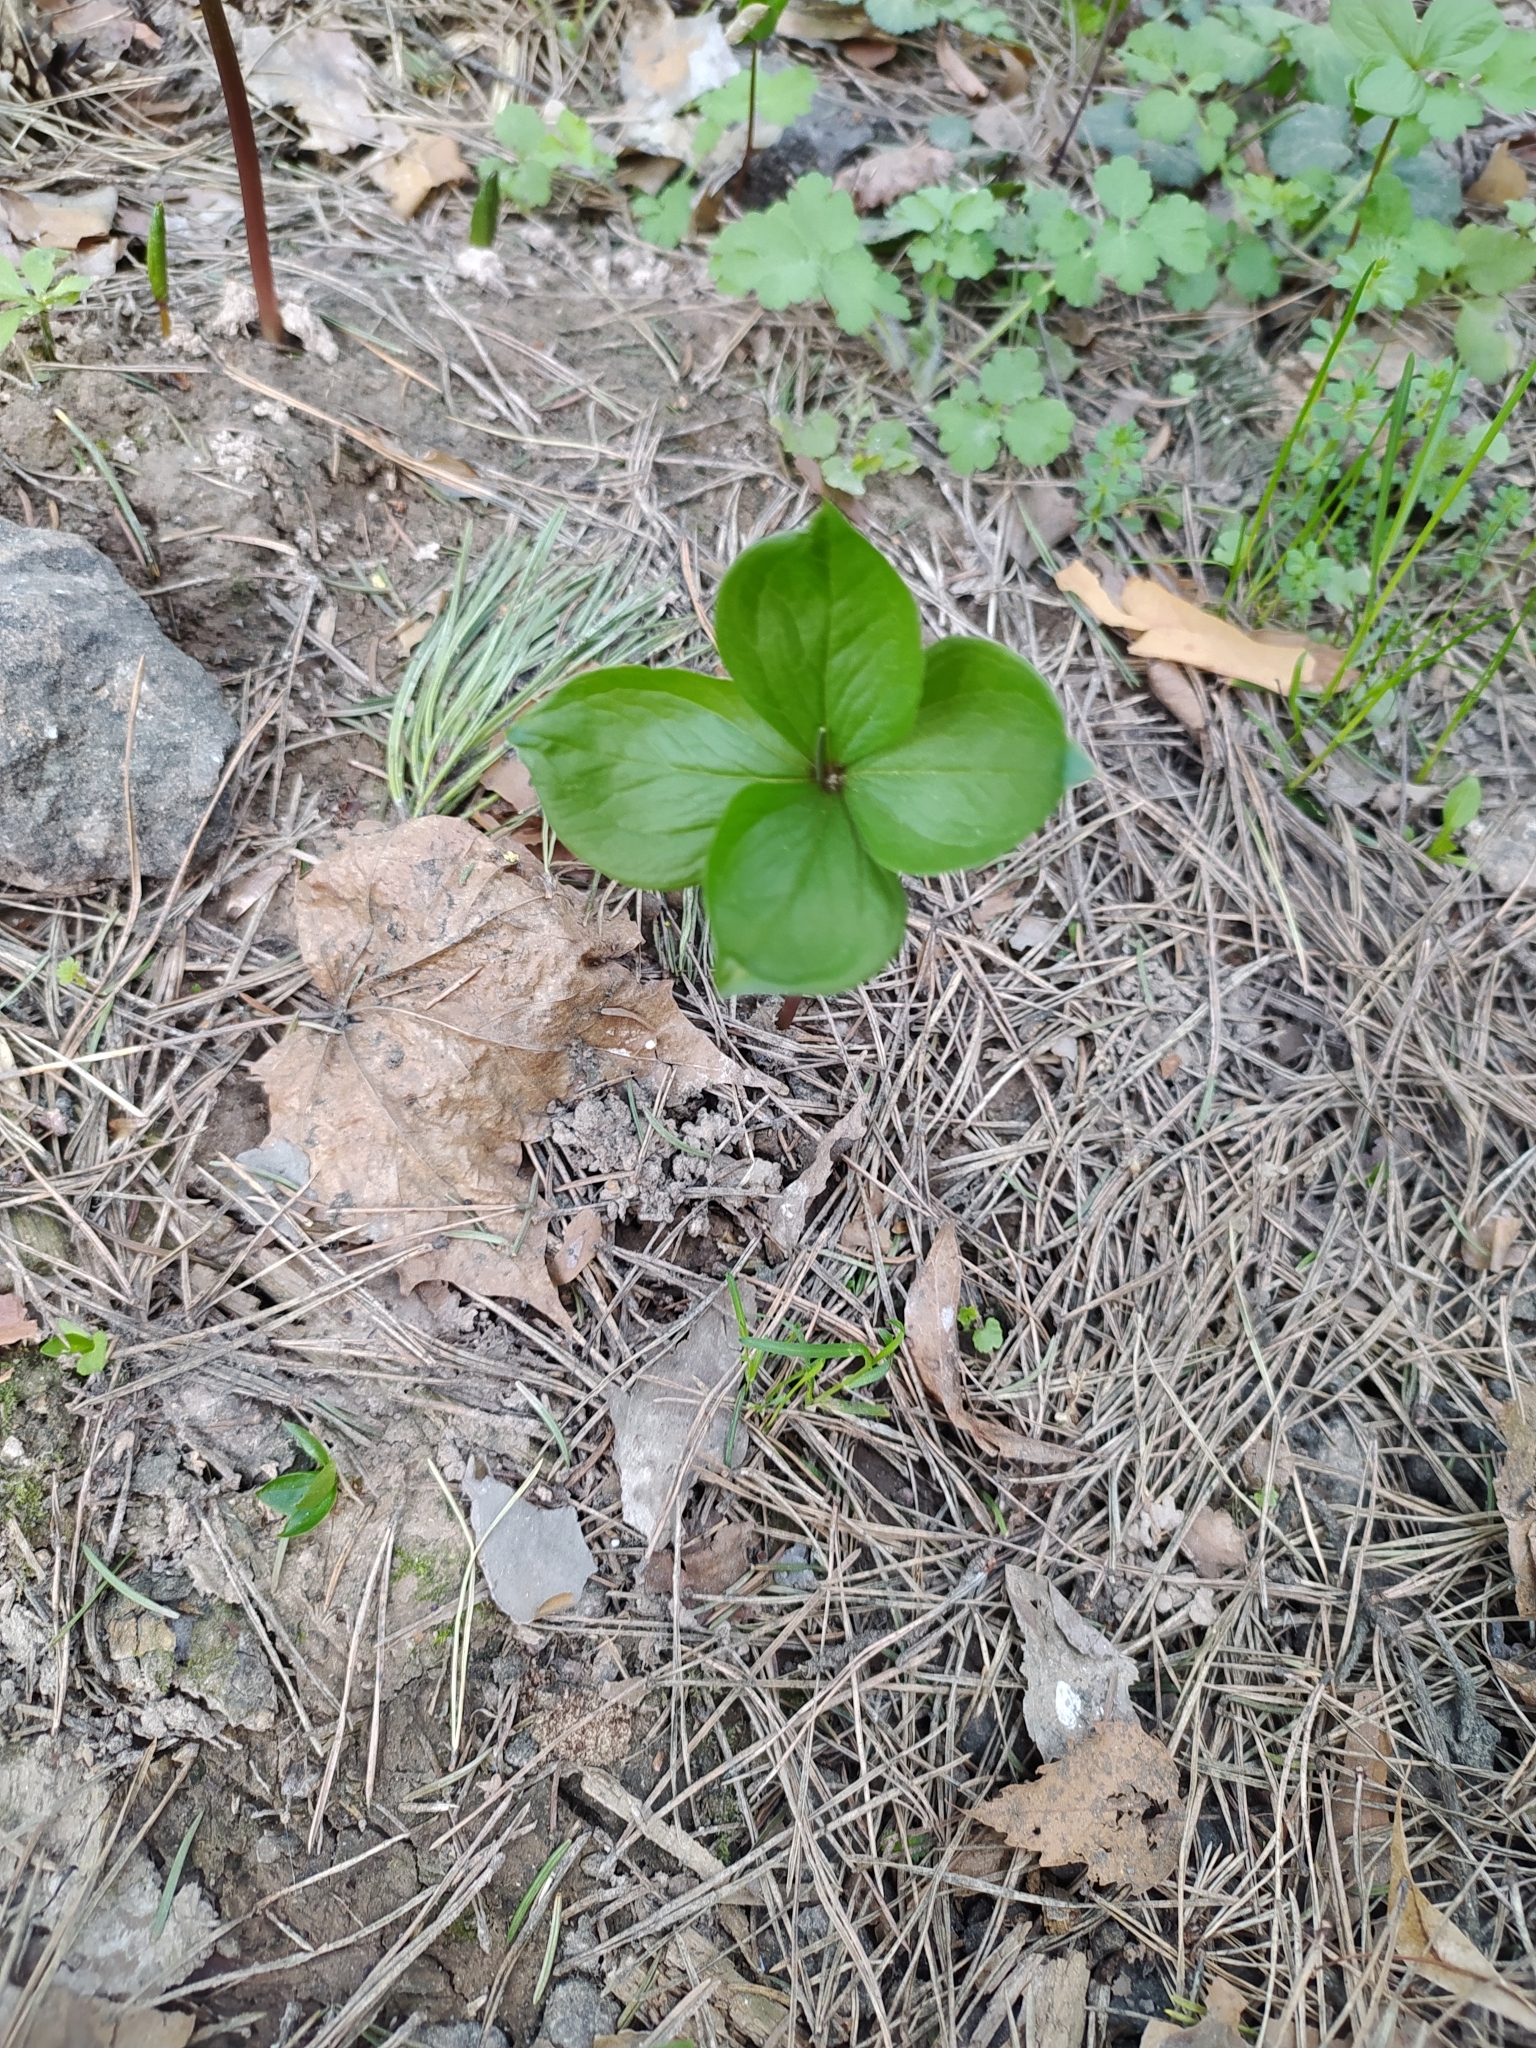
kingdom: Plantae
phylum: Tracheophyta
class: Liliopsida
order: Liliales
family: Melanthiaceae
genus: Paris
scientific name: Paris quadrifolia
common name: Herb-paris
